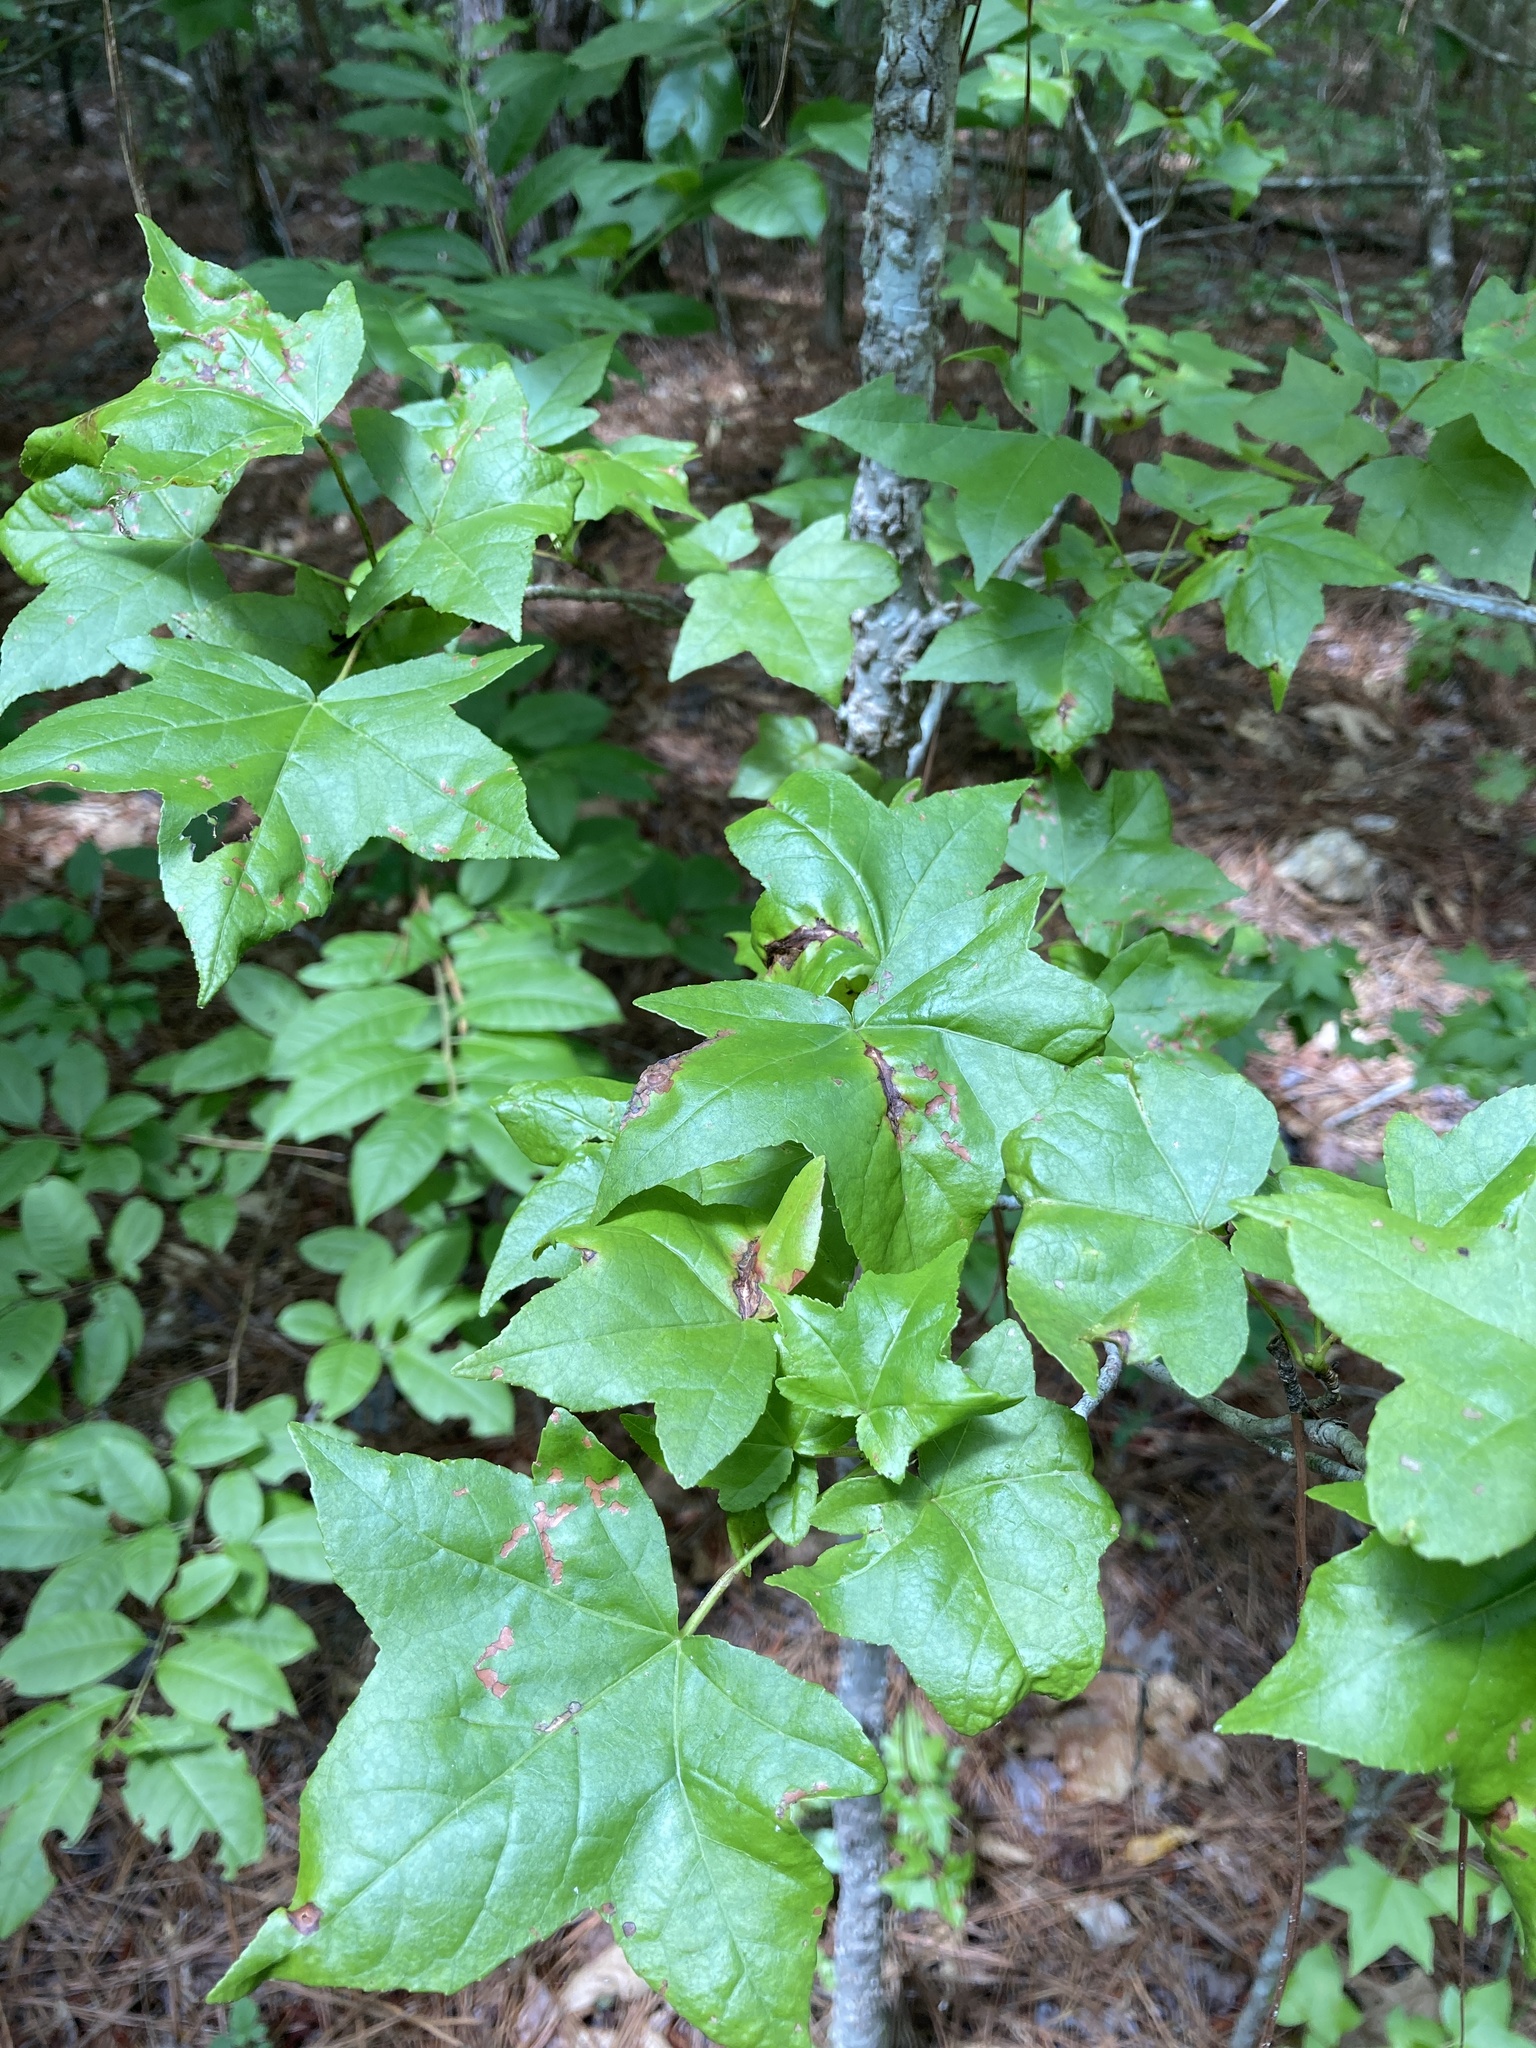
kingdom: Plantae
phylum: Tracheophyta
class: Magnoliopsida
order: Saxifragales
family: Altingiaceae
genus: Liquidambar
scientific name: Liquidambar styraciflua
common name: Sweet gum
